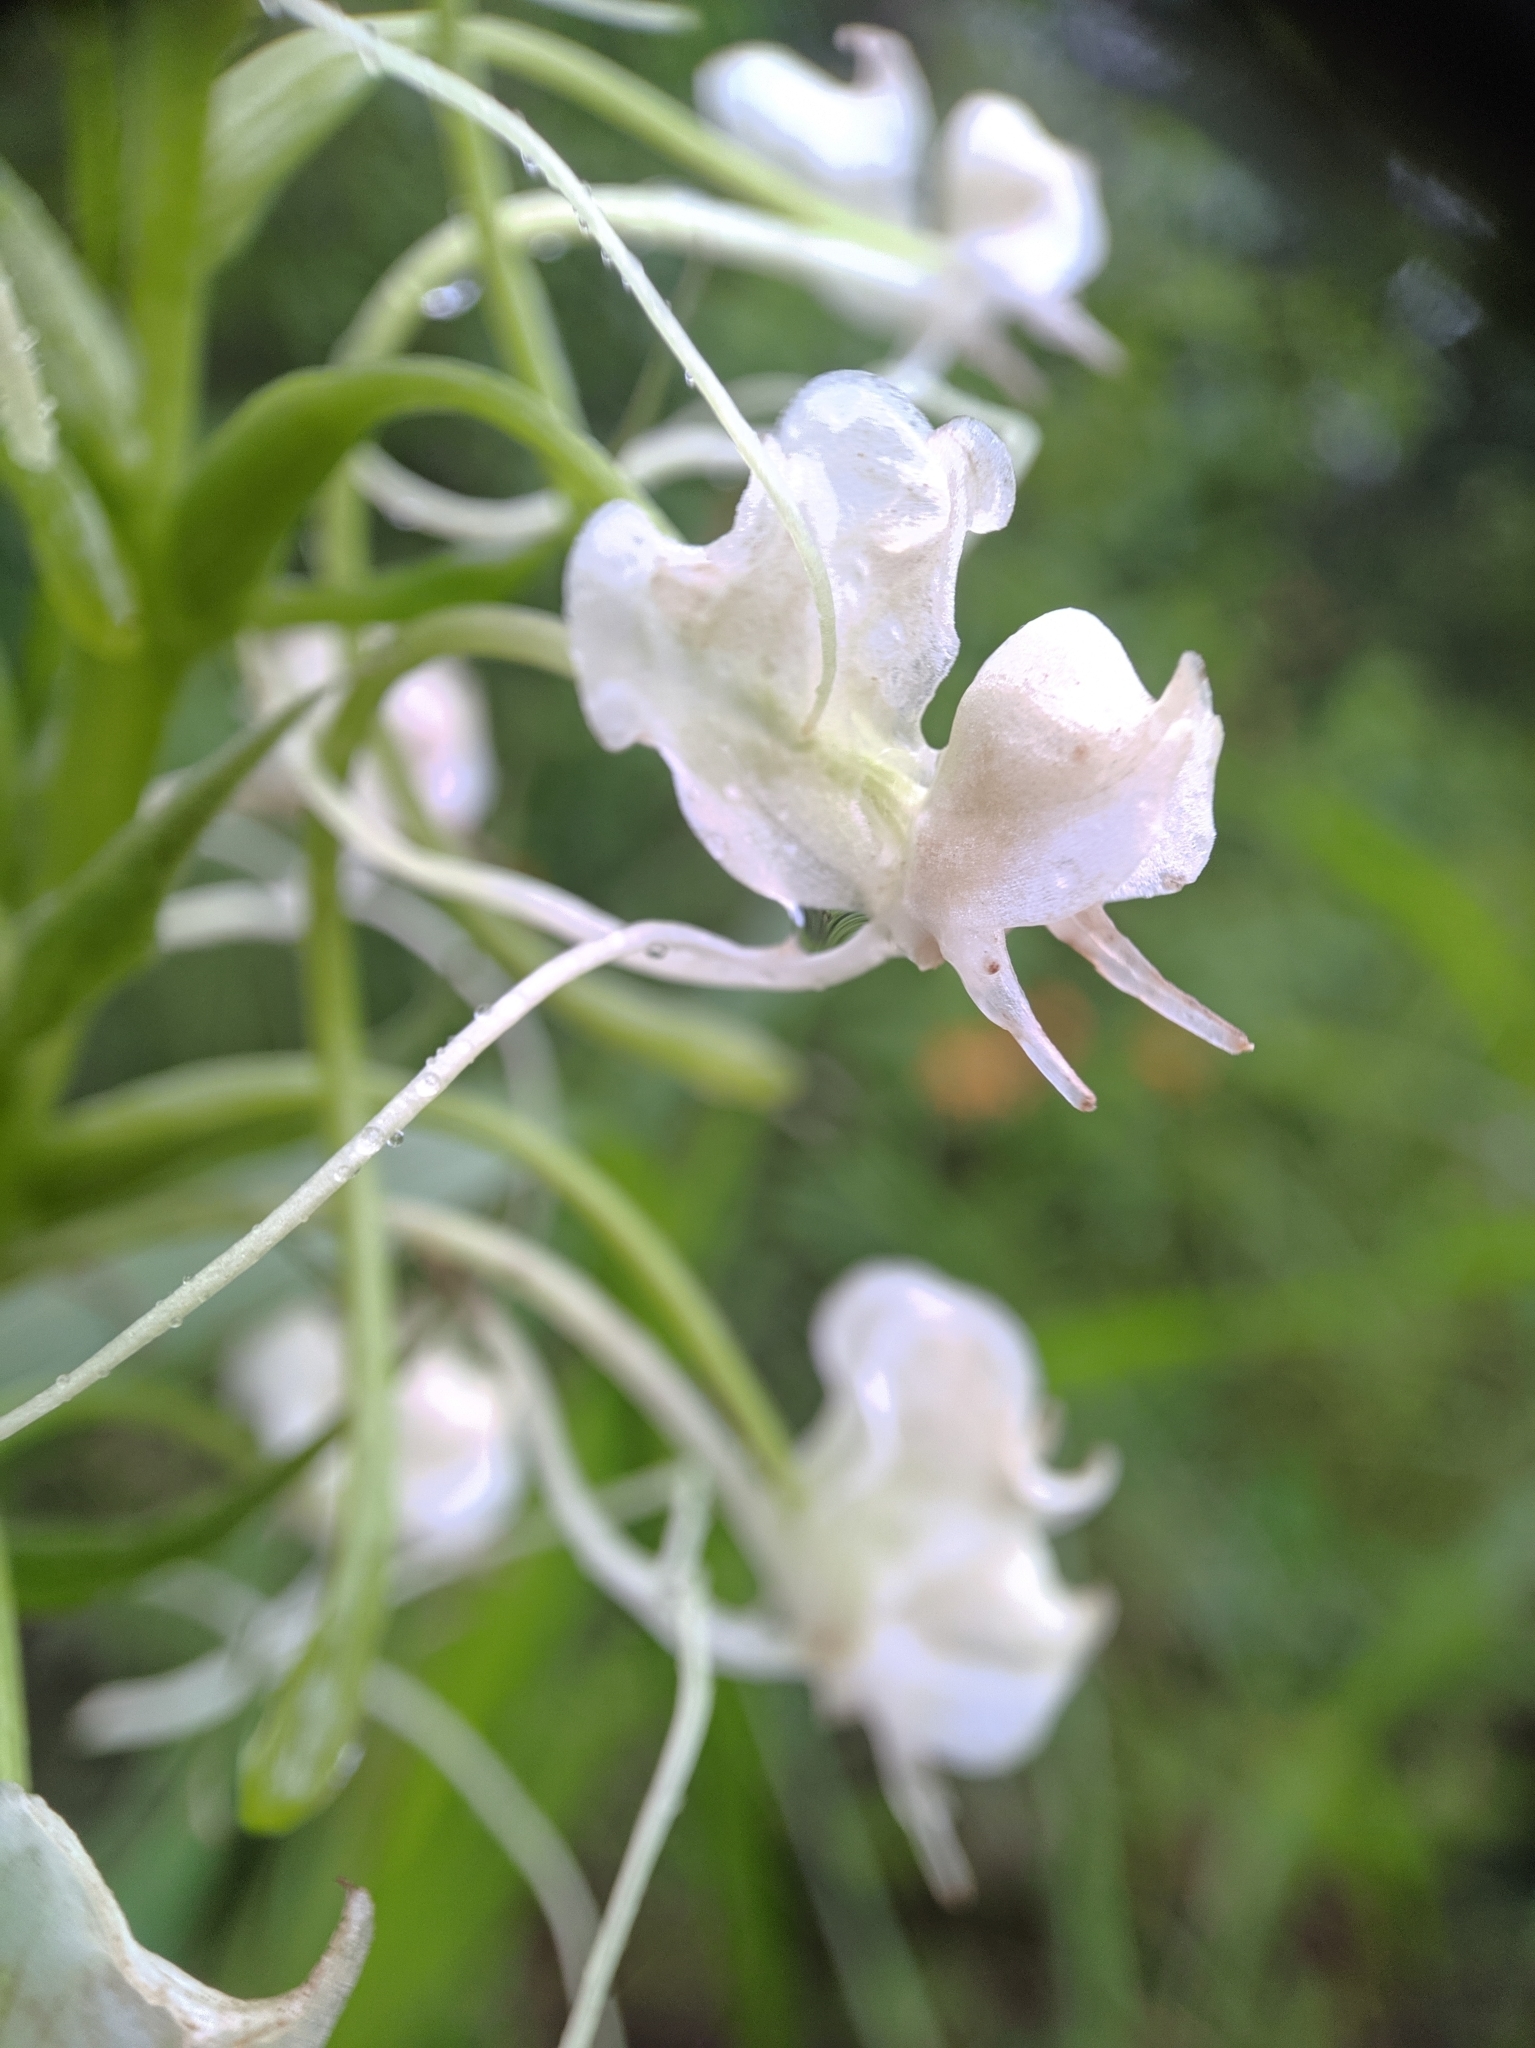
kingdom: Plantae
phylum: Tracheophyta
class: Liliopsida
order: Asparagales
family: Orchidaceae
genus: Habenaria
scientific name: Habenaria commelinifolia
